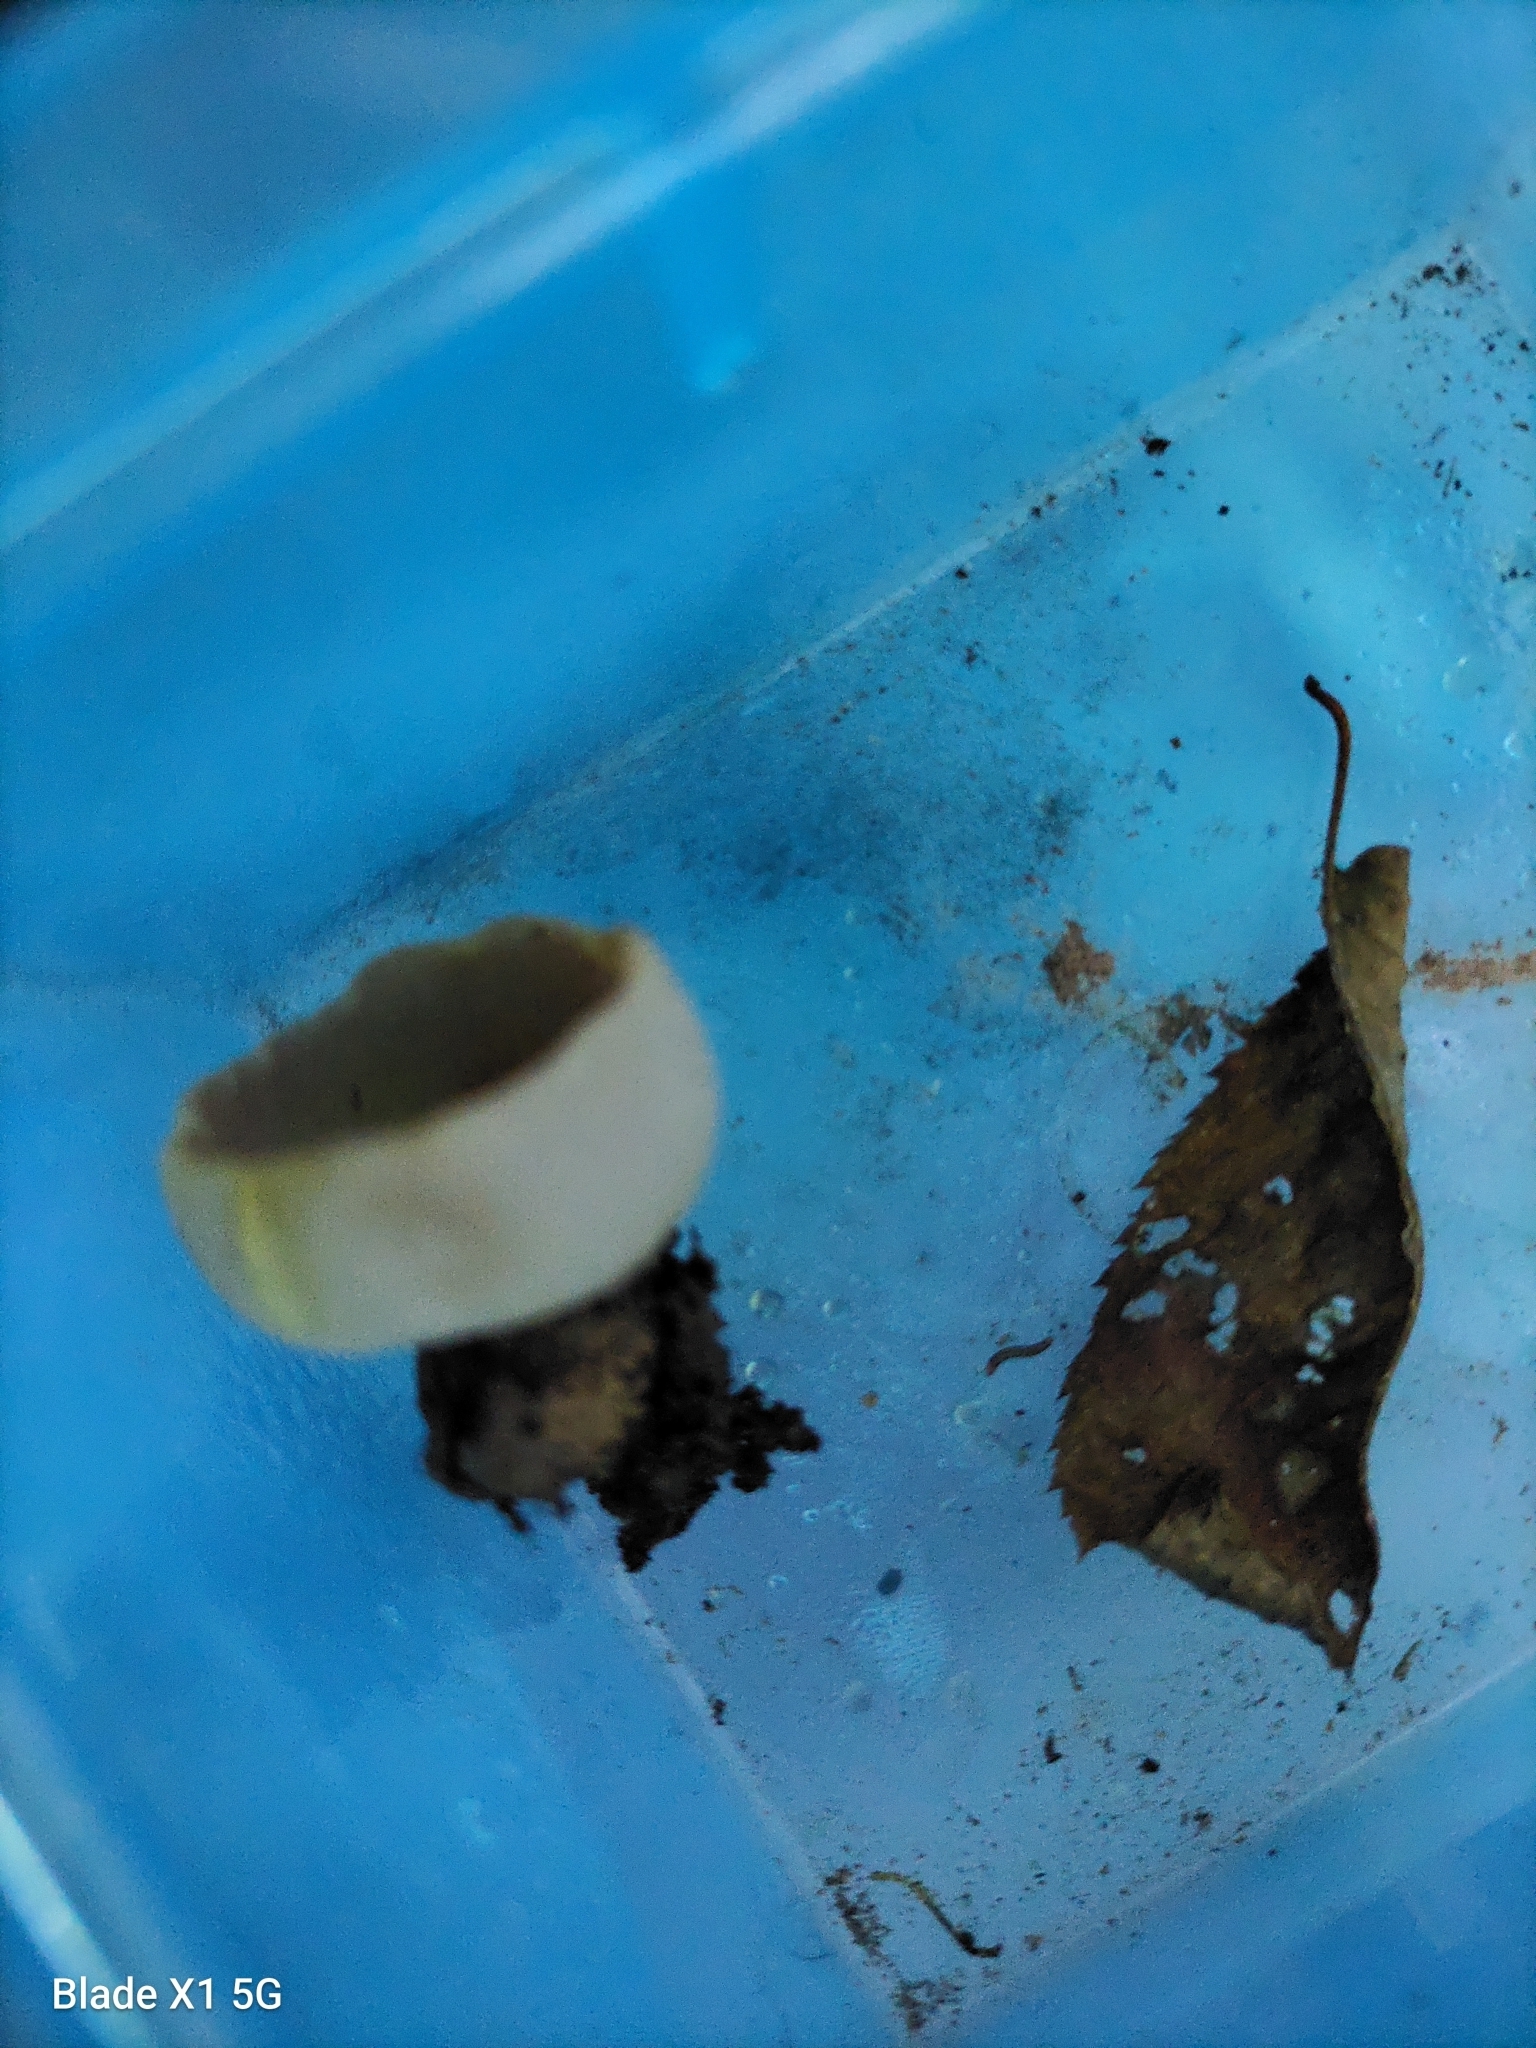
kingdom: Fungi
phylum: Ascomycota
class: Pezizomycetes
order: Pezizales
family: Pezizaceae
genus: Paragalactinia
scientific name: Paragalactinia michelii
